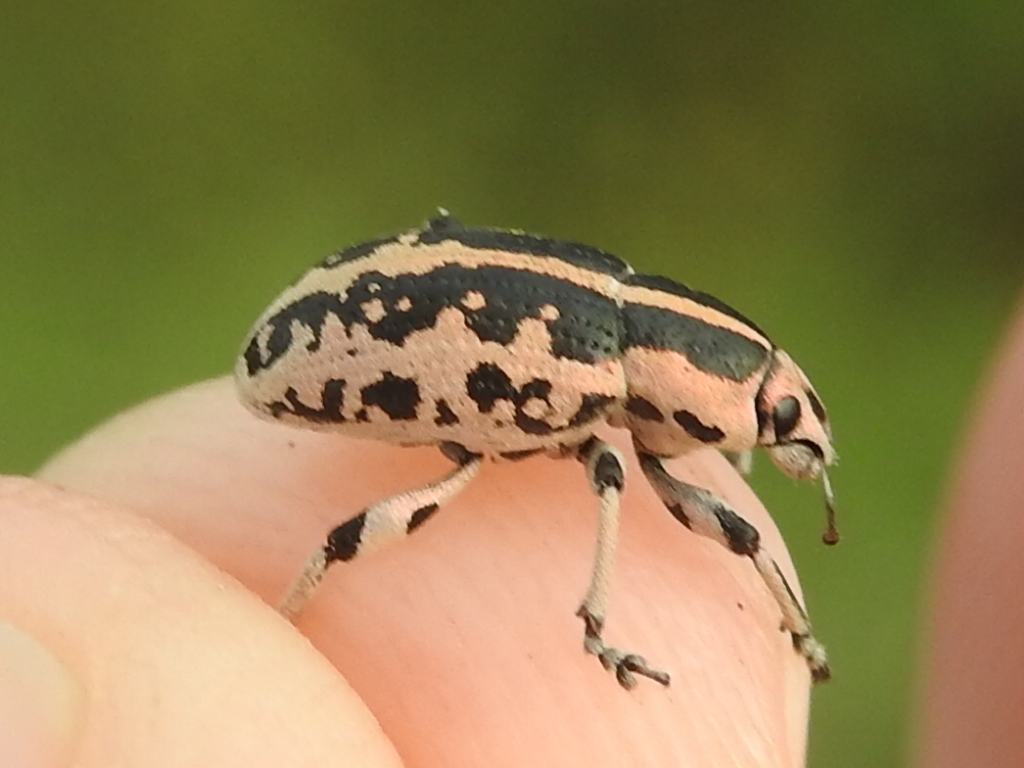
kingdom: Animalia
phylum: Arthropoda
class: Insecta
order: Coleoptera
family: Curculionidae
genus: Eudiagogus
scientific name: Eudiagogus rosenschoeldi
